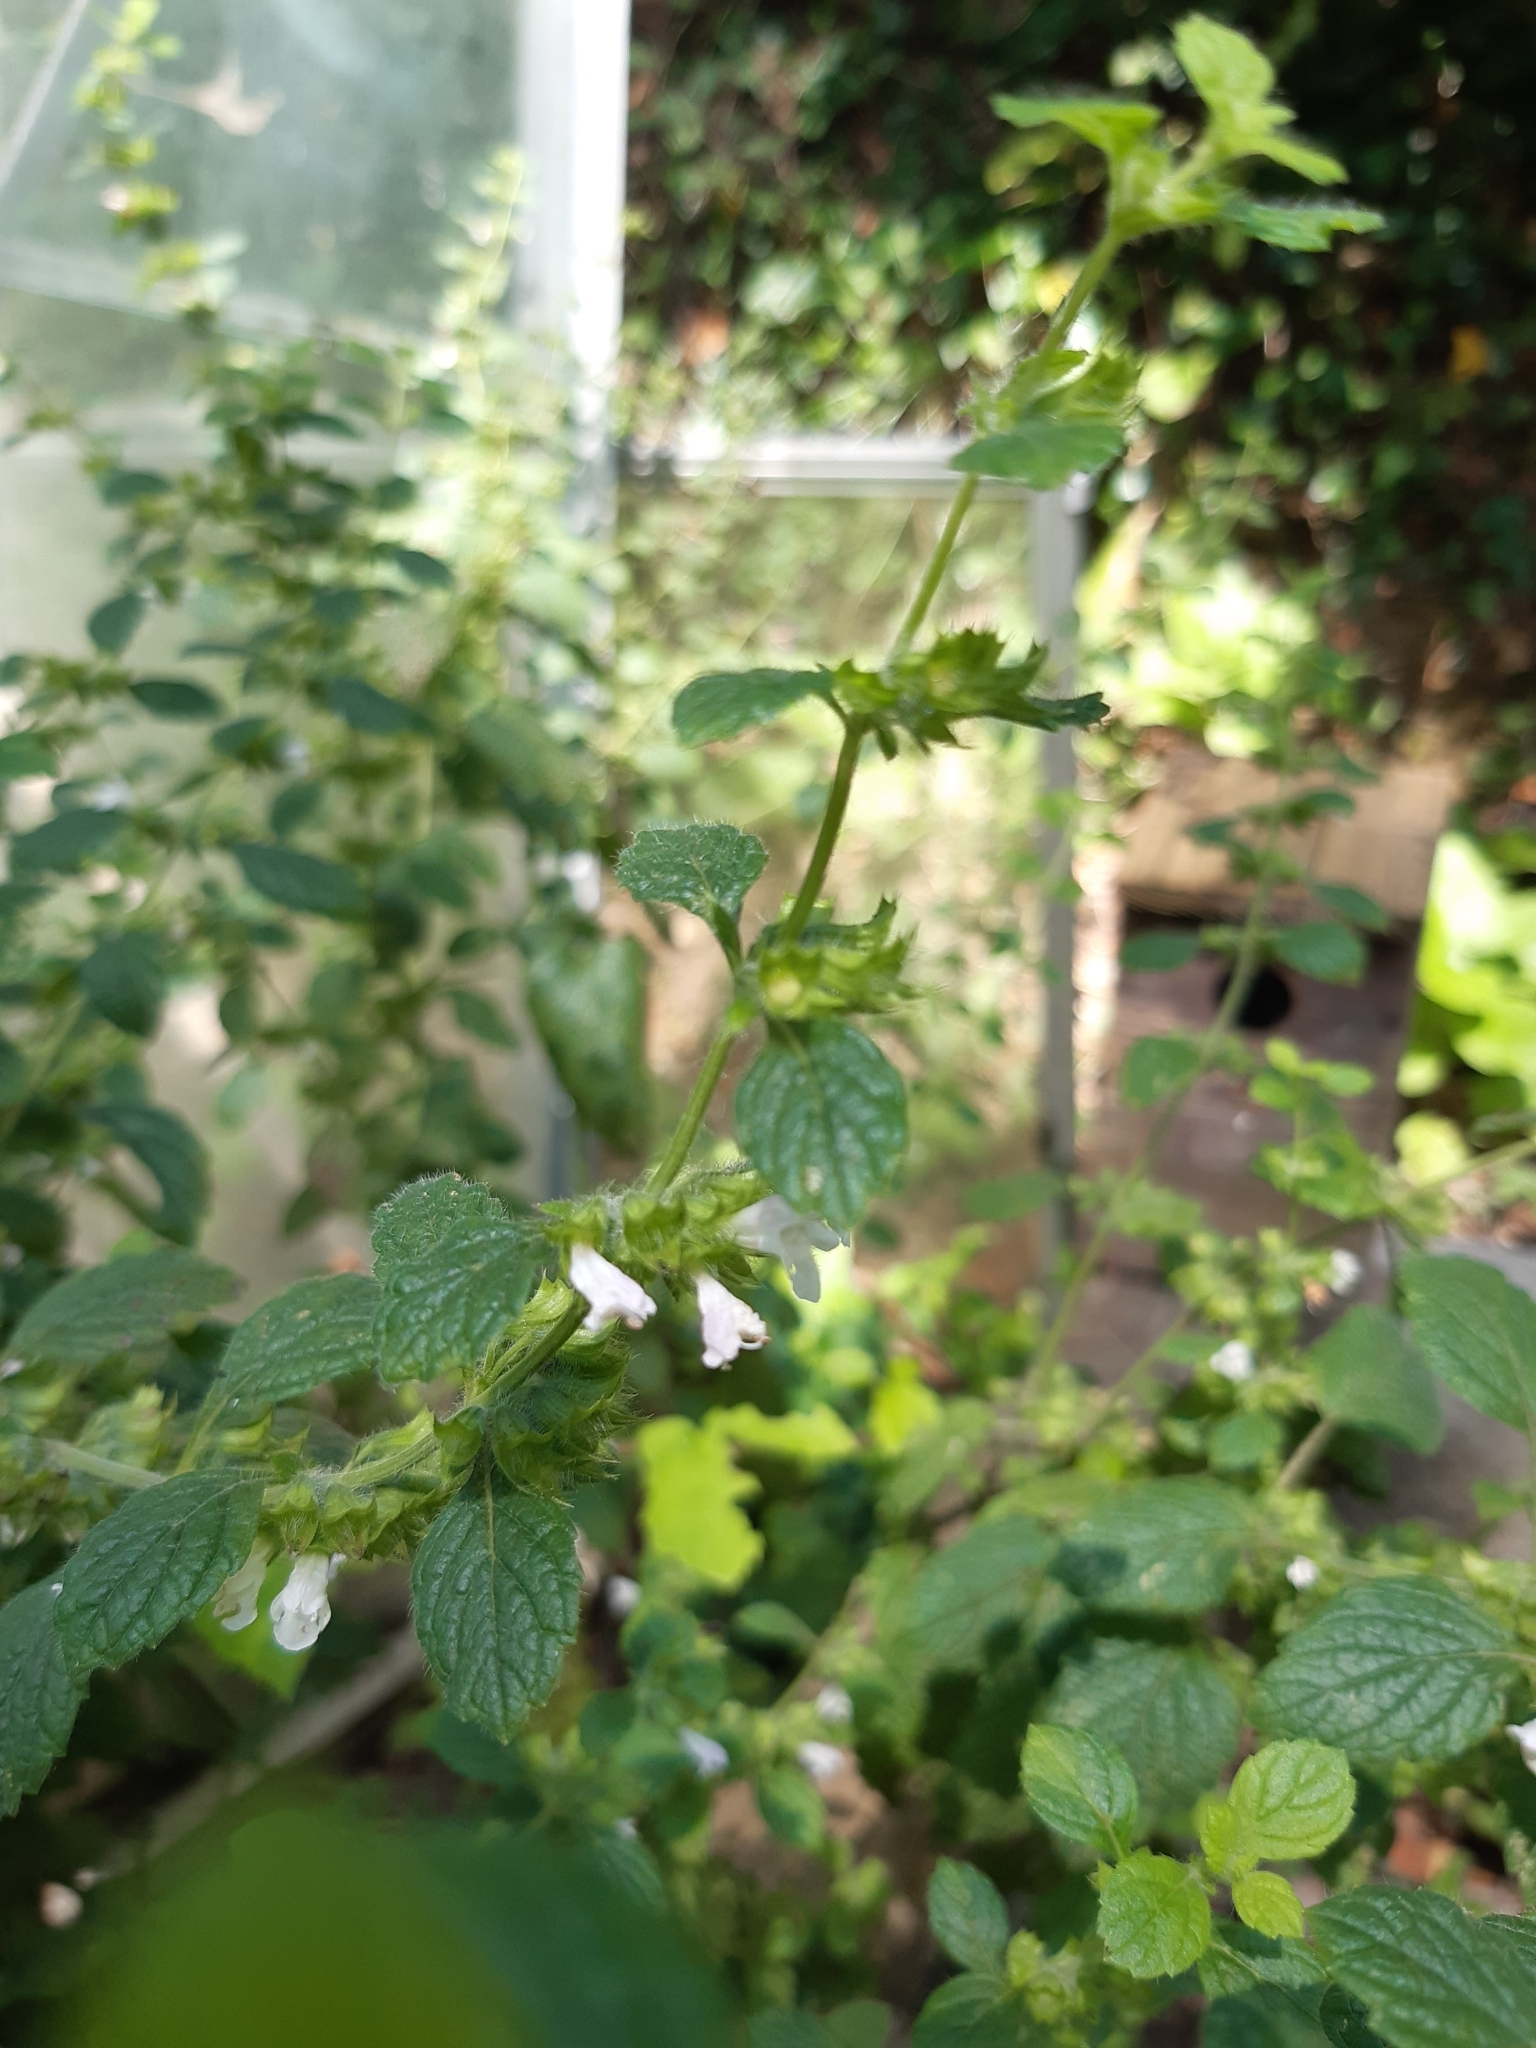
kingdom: Plantae
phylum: Tracheophyta
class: Magnoliopsida
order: Lamiales
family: Lamiaceae
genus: Melissa
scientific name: Melissa officinalis
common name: Balm
